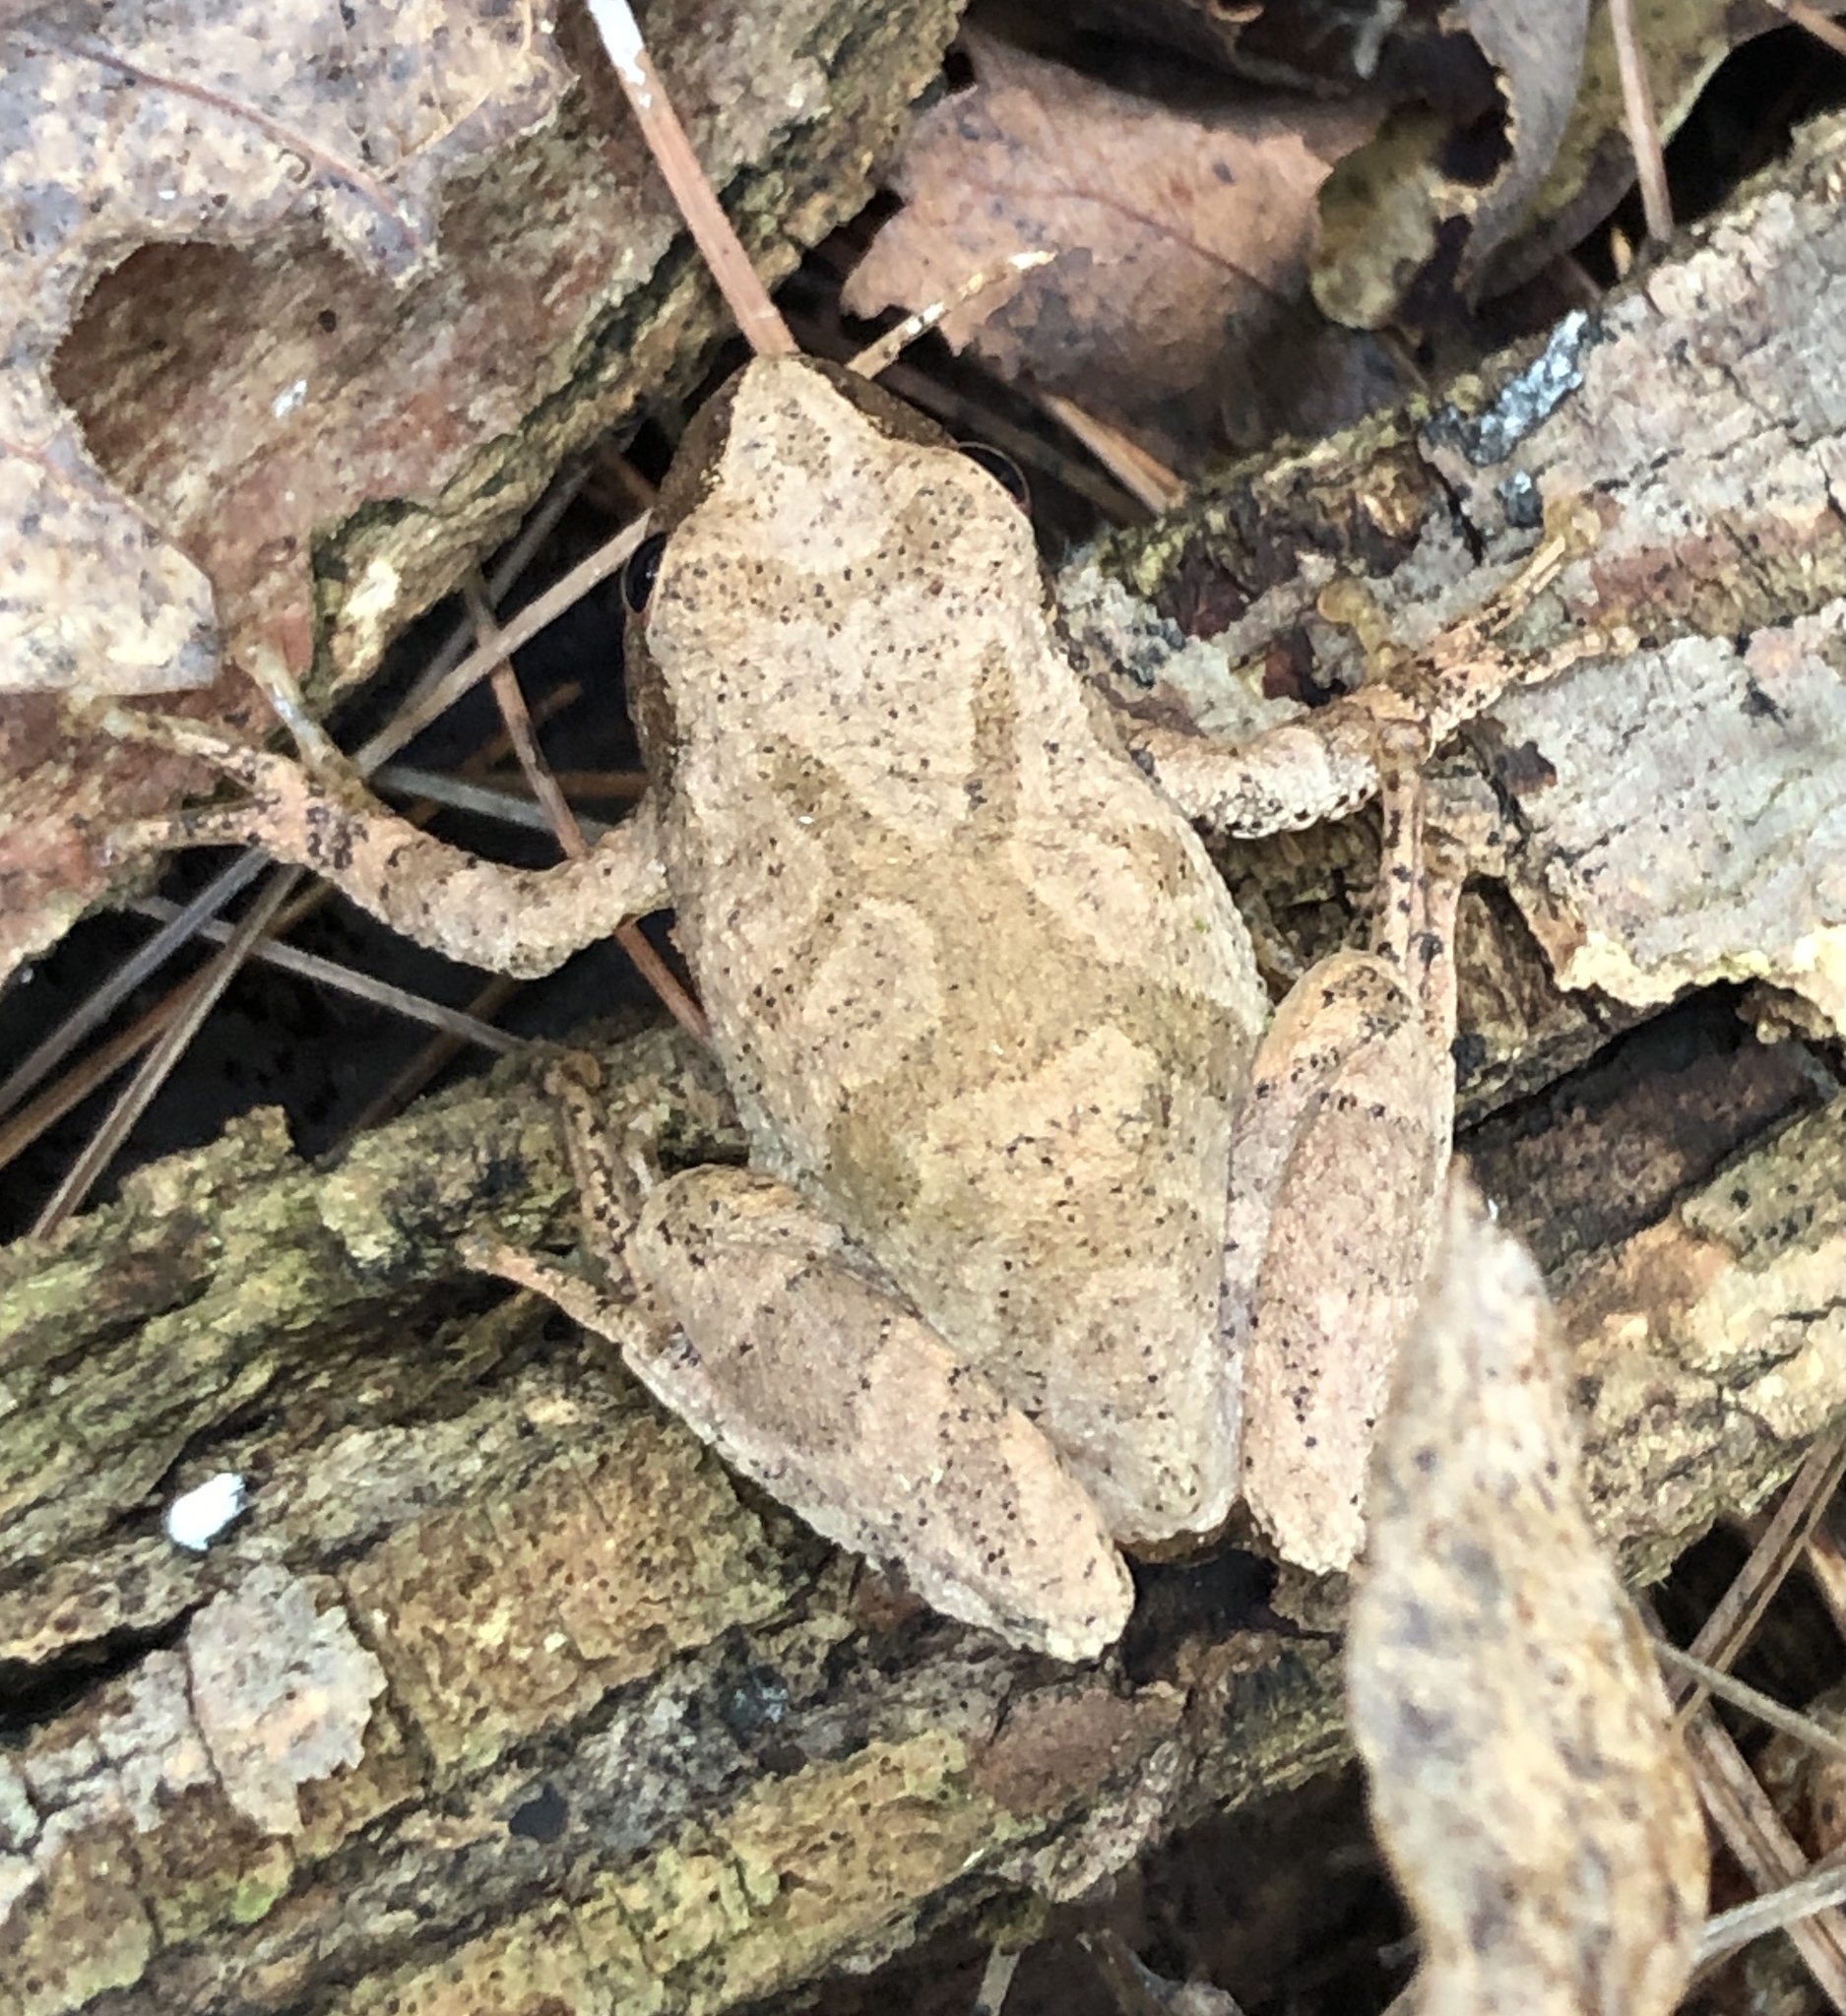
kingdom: Animalia
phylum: Chordata
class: Amphibia
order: Anura
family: Hylidae
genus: Pseudacris
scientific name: Pseudacris crucifer
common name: Spring peeper
